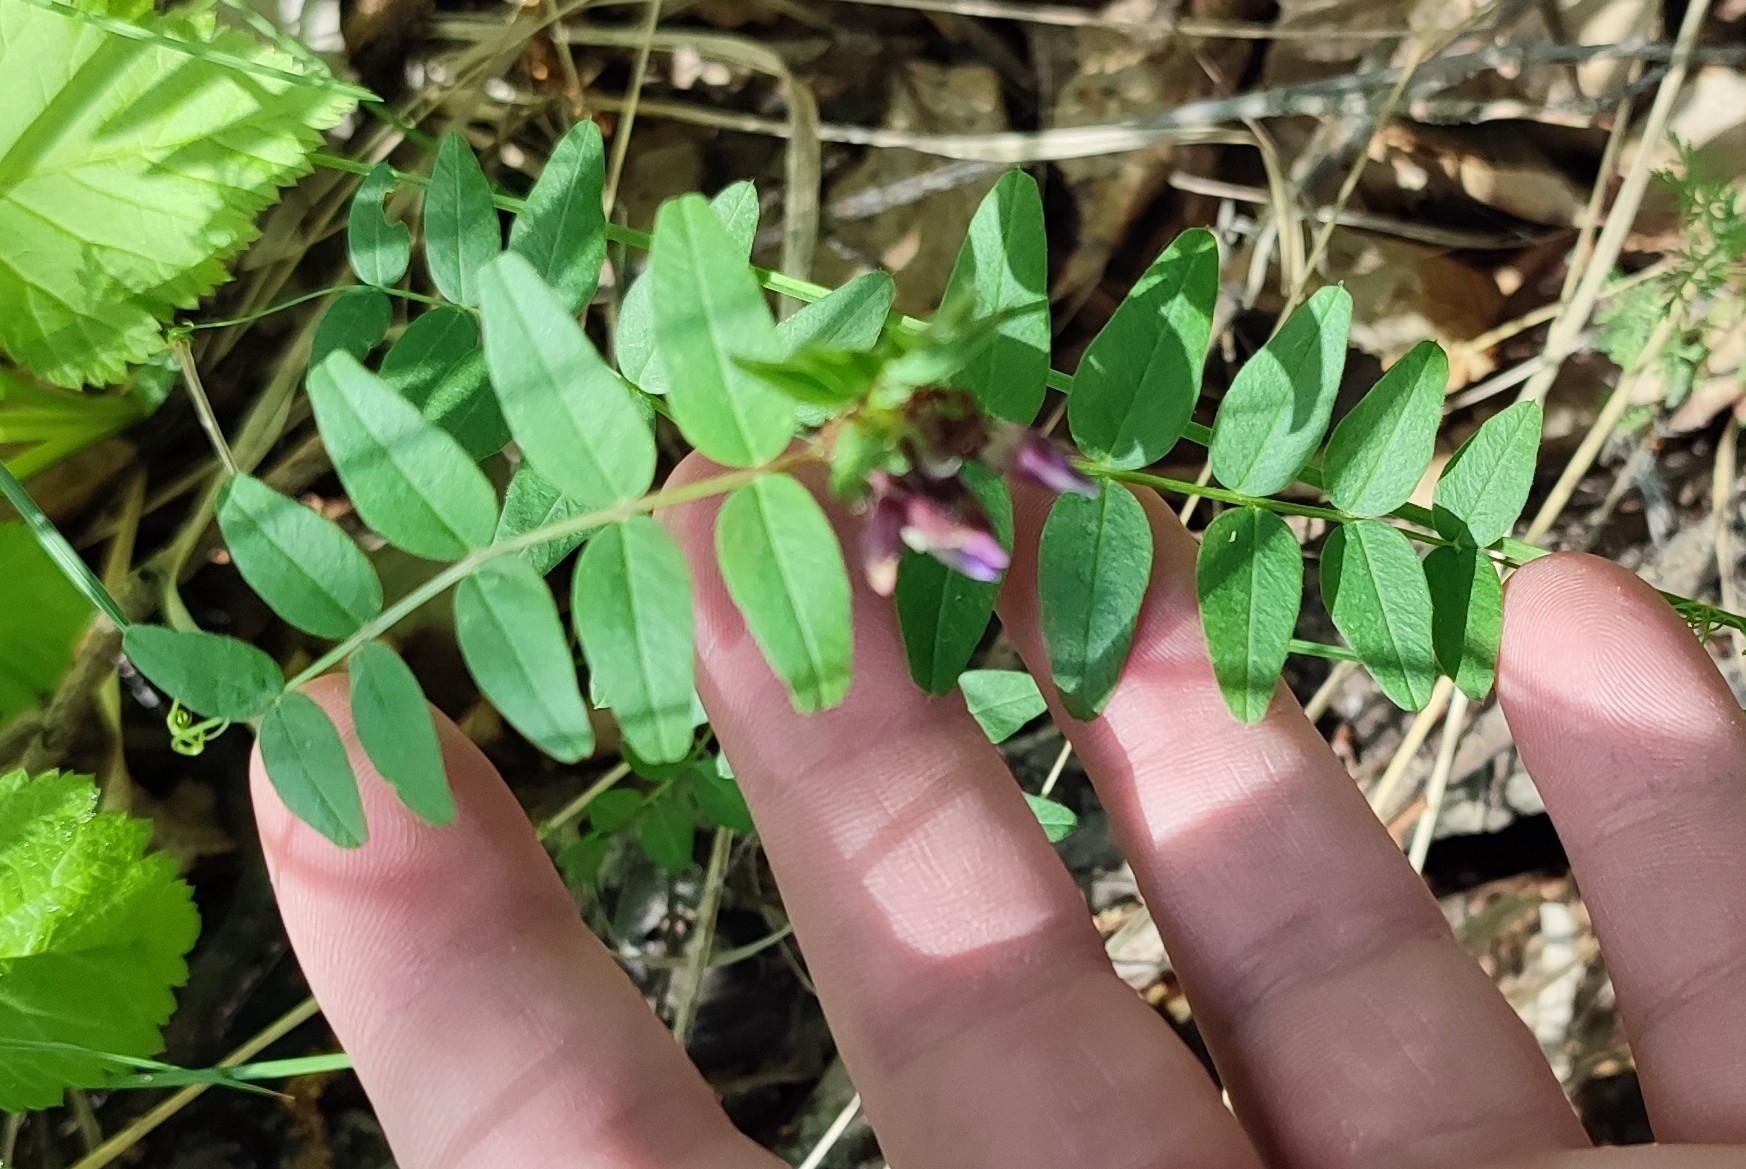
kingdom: Plantae
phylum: Tracheophyta
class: Magnoliopsida
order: Fabales
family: Fabaceae
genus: Vicia
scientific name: Vicia sepium
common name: Bush vetch
